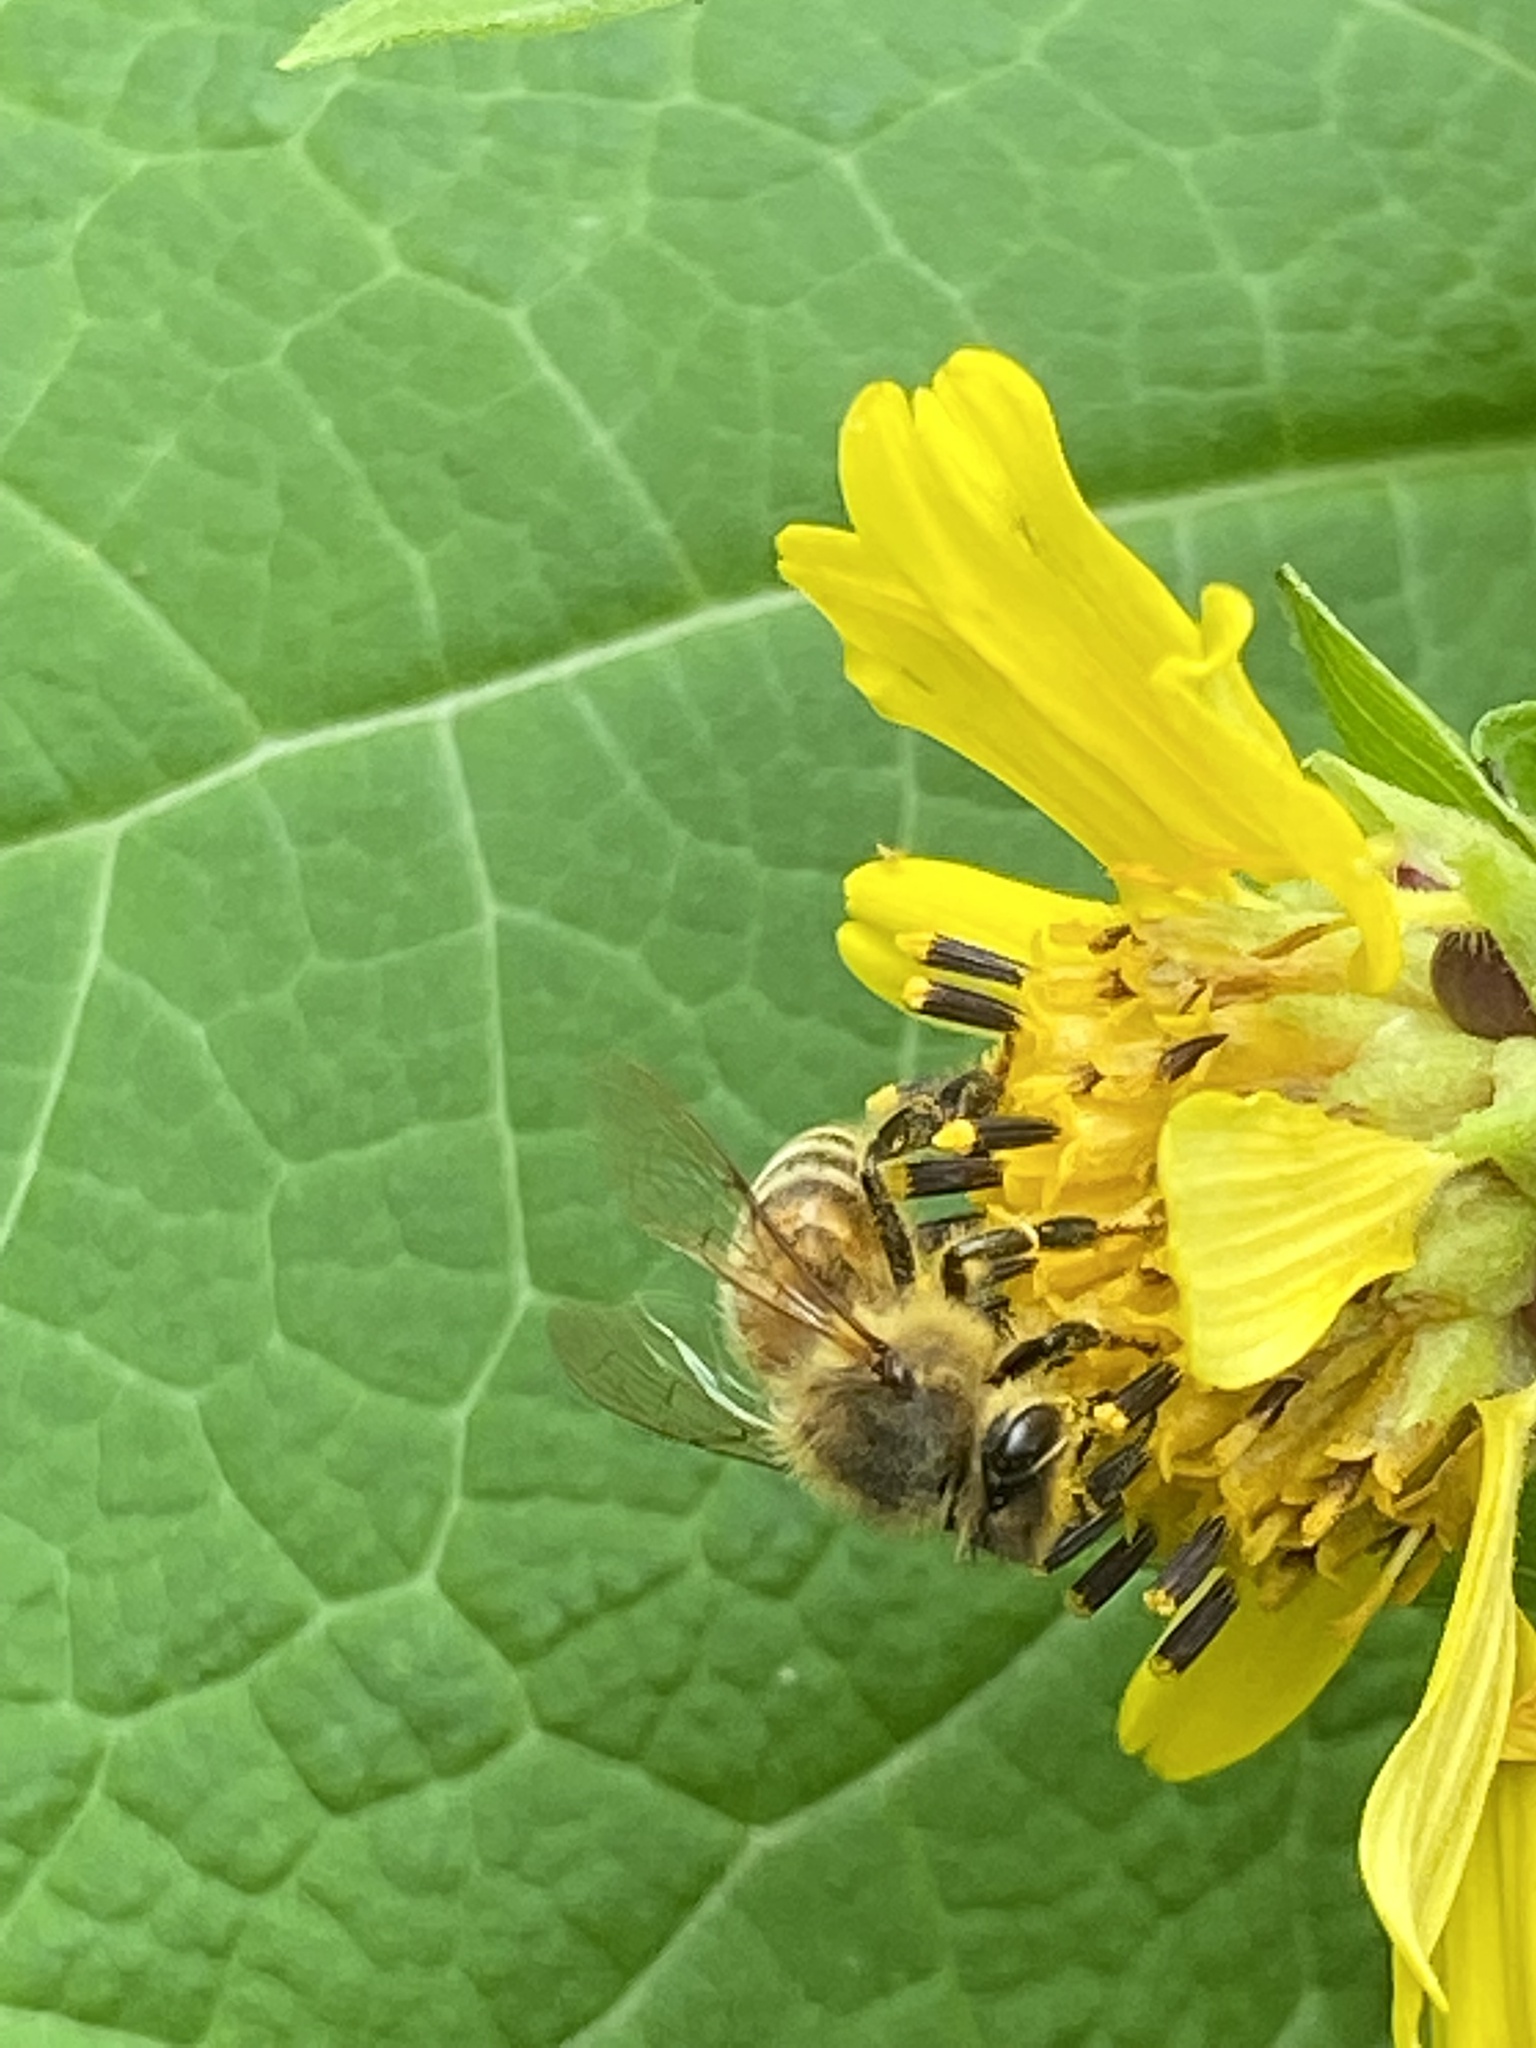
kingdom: Animalia
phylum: Arthropoda
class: Insecta
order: Hymenoptera
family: Apidae
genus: Apis
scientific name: Apis mellifera
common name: Honey bee
